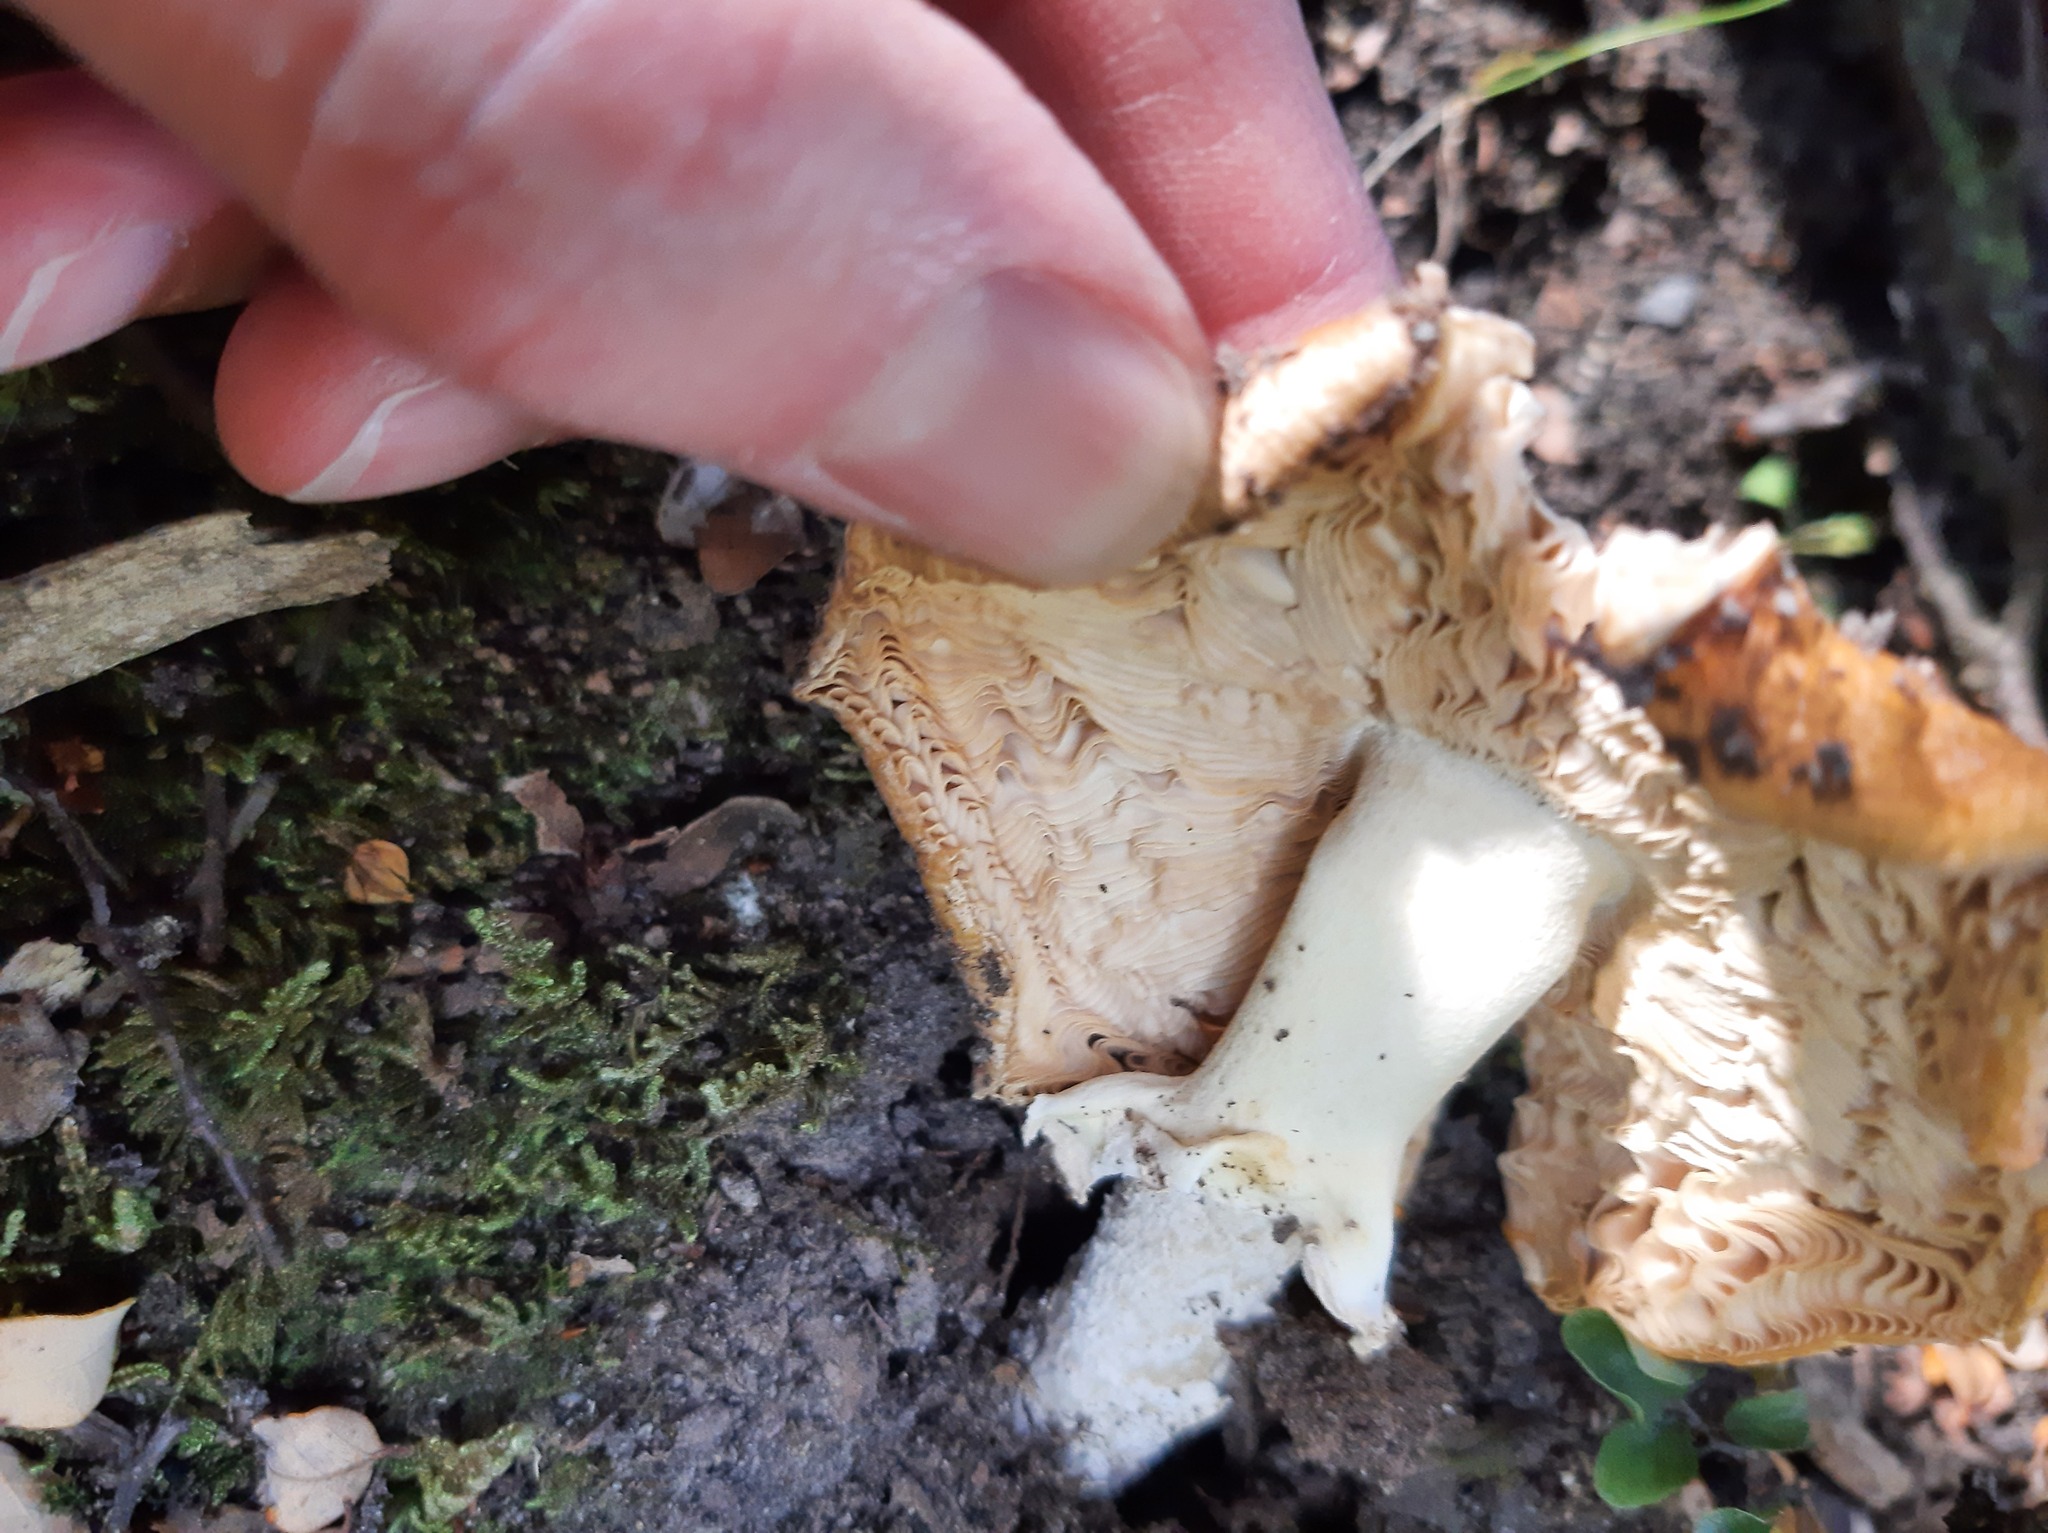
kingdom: Fungi
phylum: Basidiomycota
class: Agaricomycetes
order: Agaricales
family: Amanitaceae
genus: Amanita
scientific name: Amanita muscaria
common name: Fly agaric
